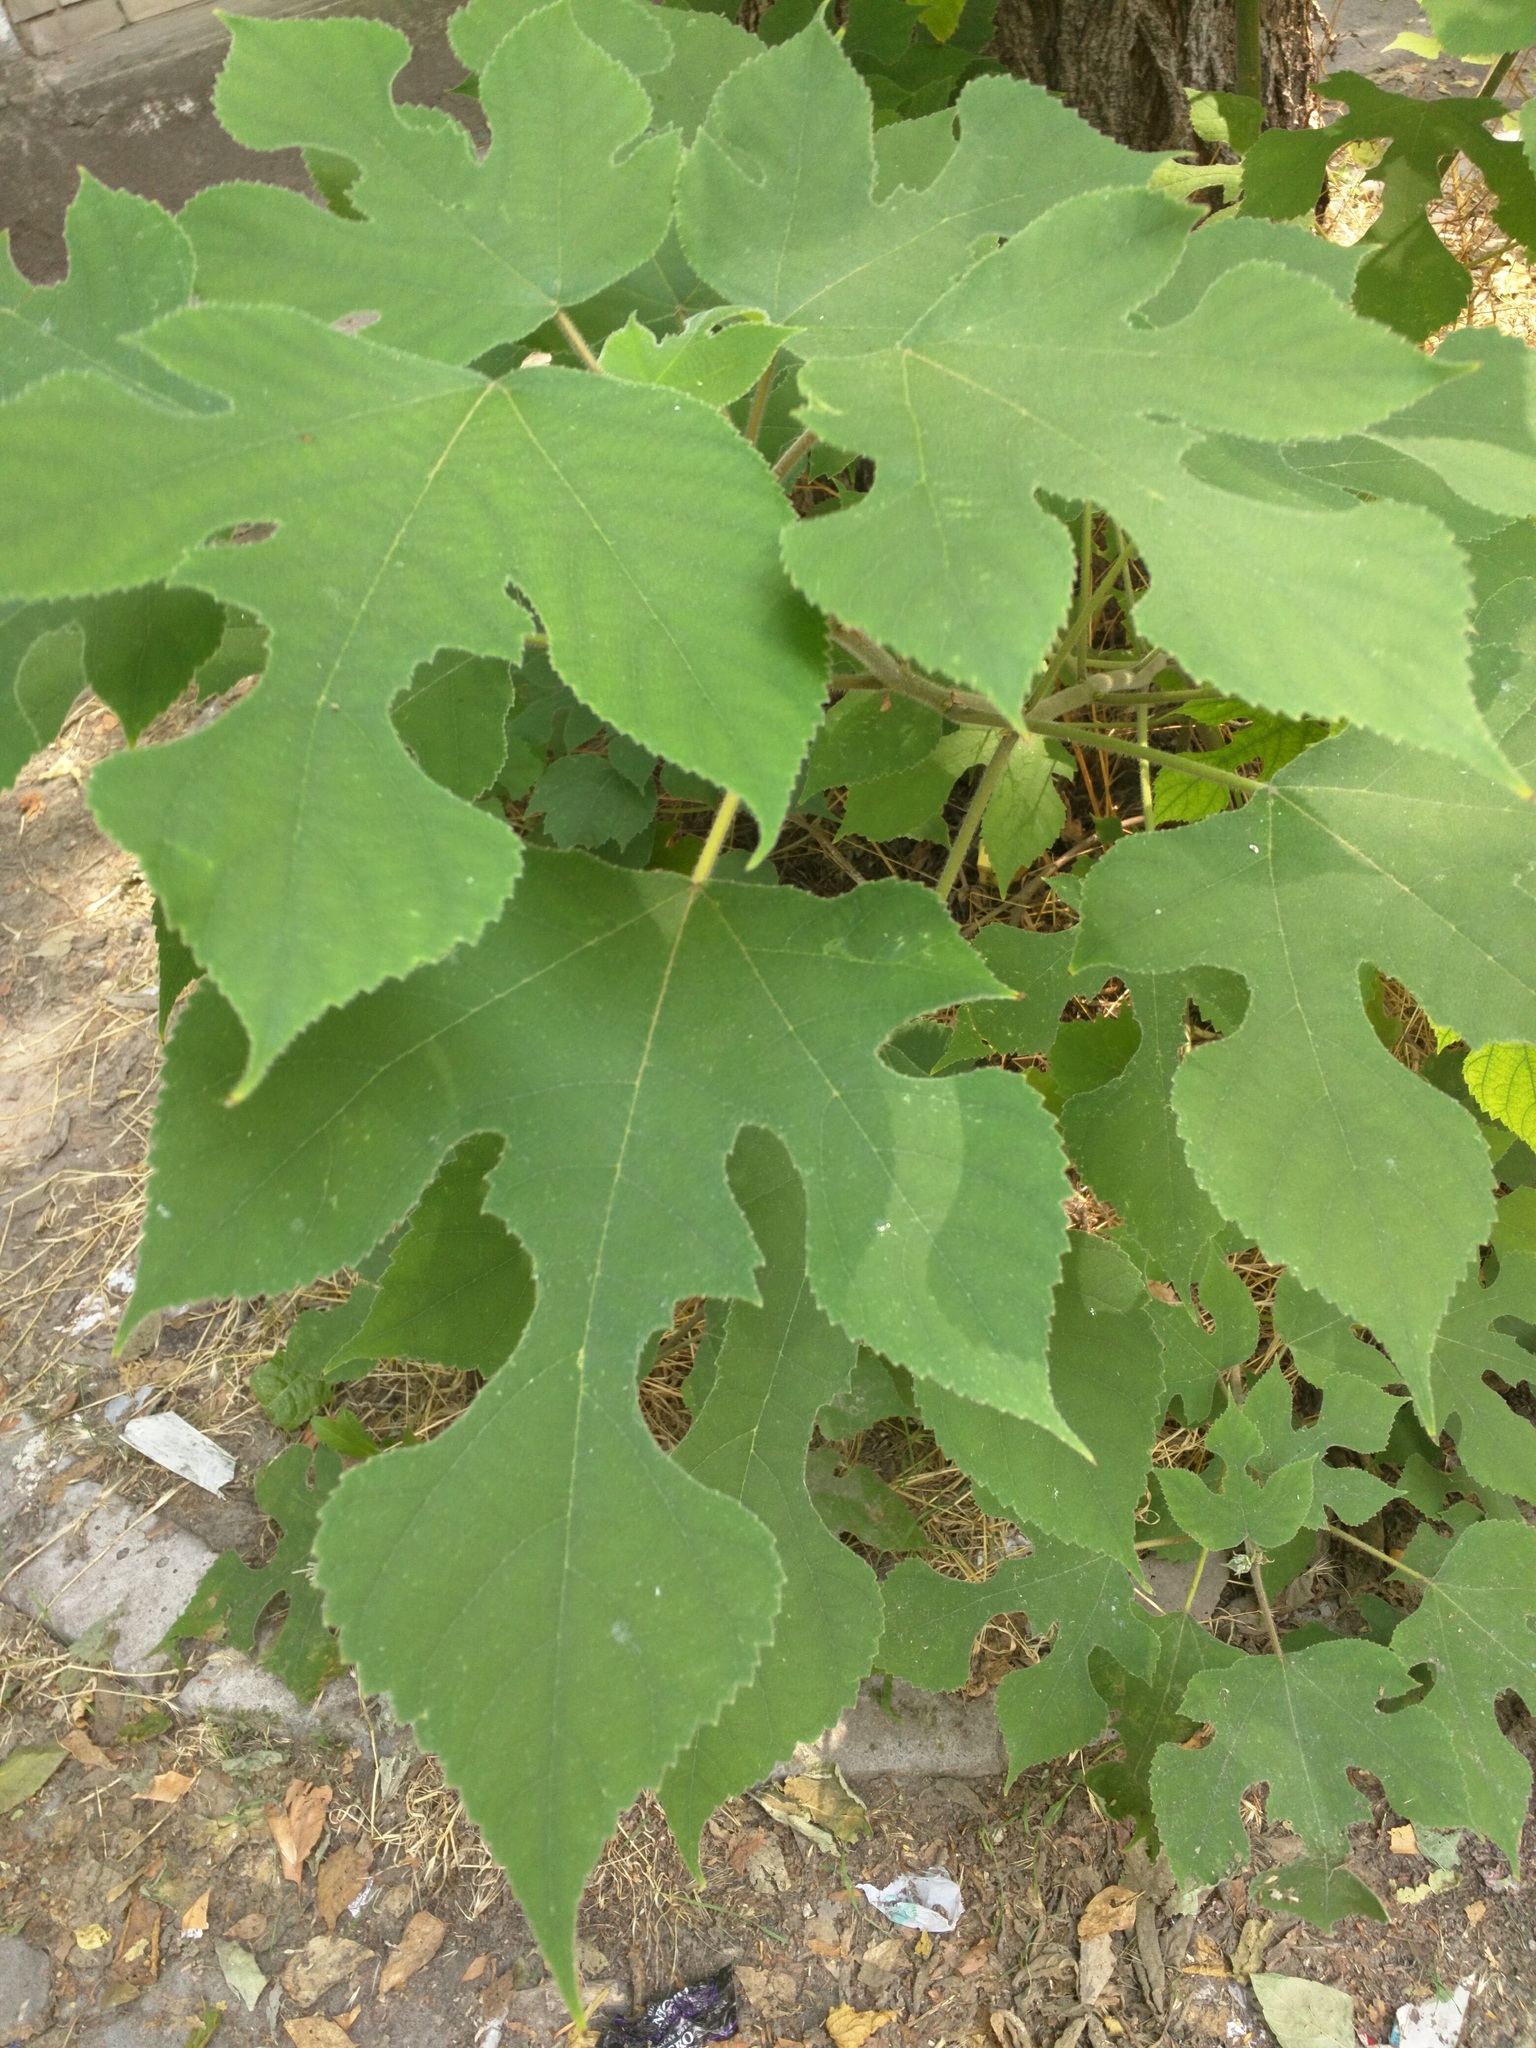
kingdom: Plantae
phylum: Tracheophyta
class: Magnoliopsida
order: Rosales
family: Moraceae
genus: Broussonetia
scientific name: Broussonetia papyrifera
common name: Paper mulberry
